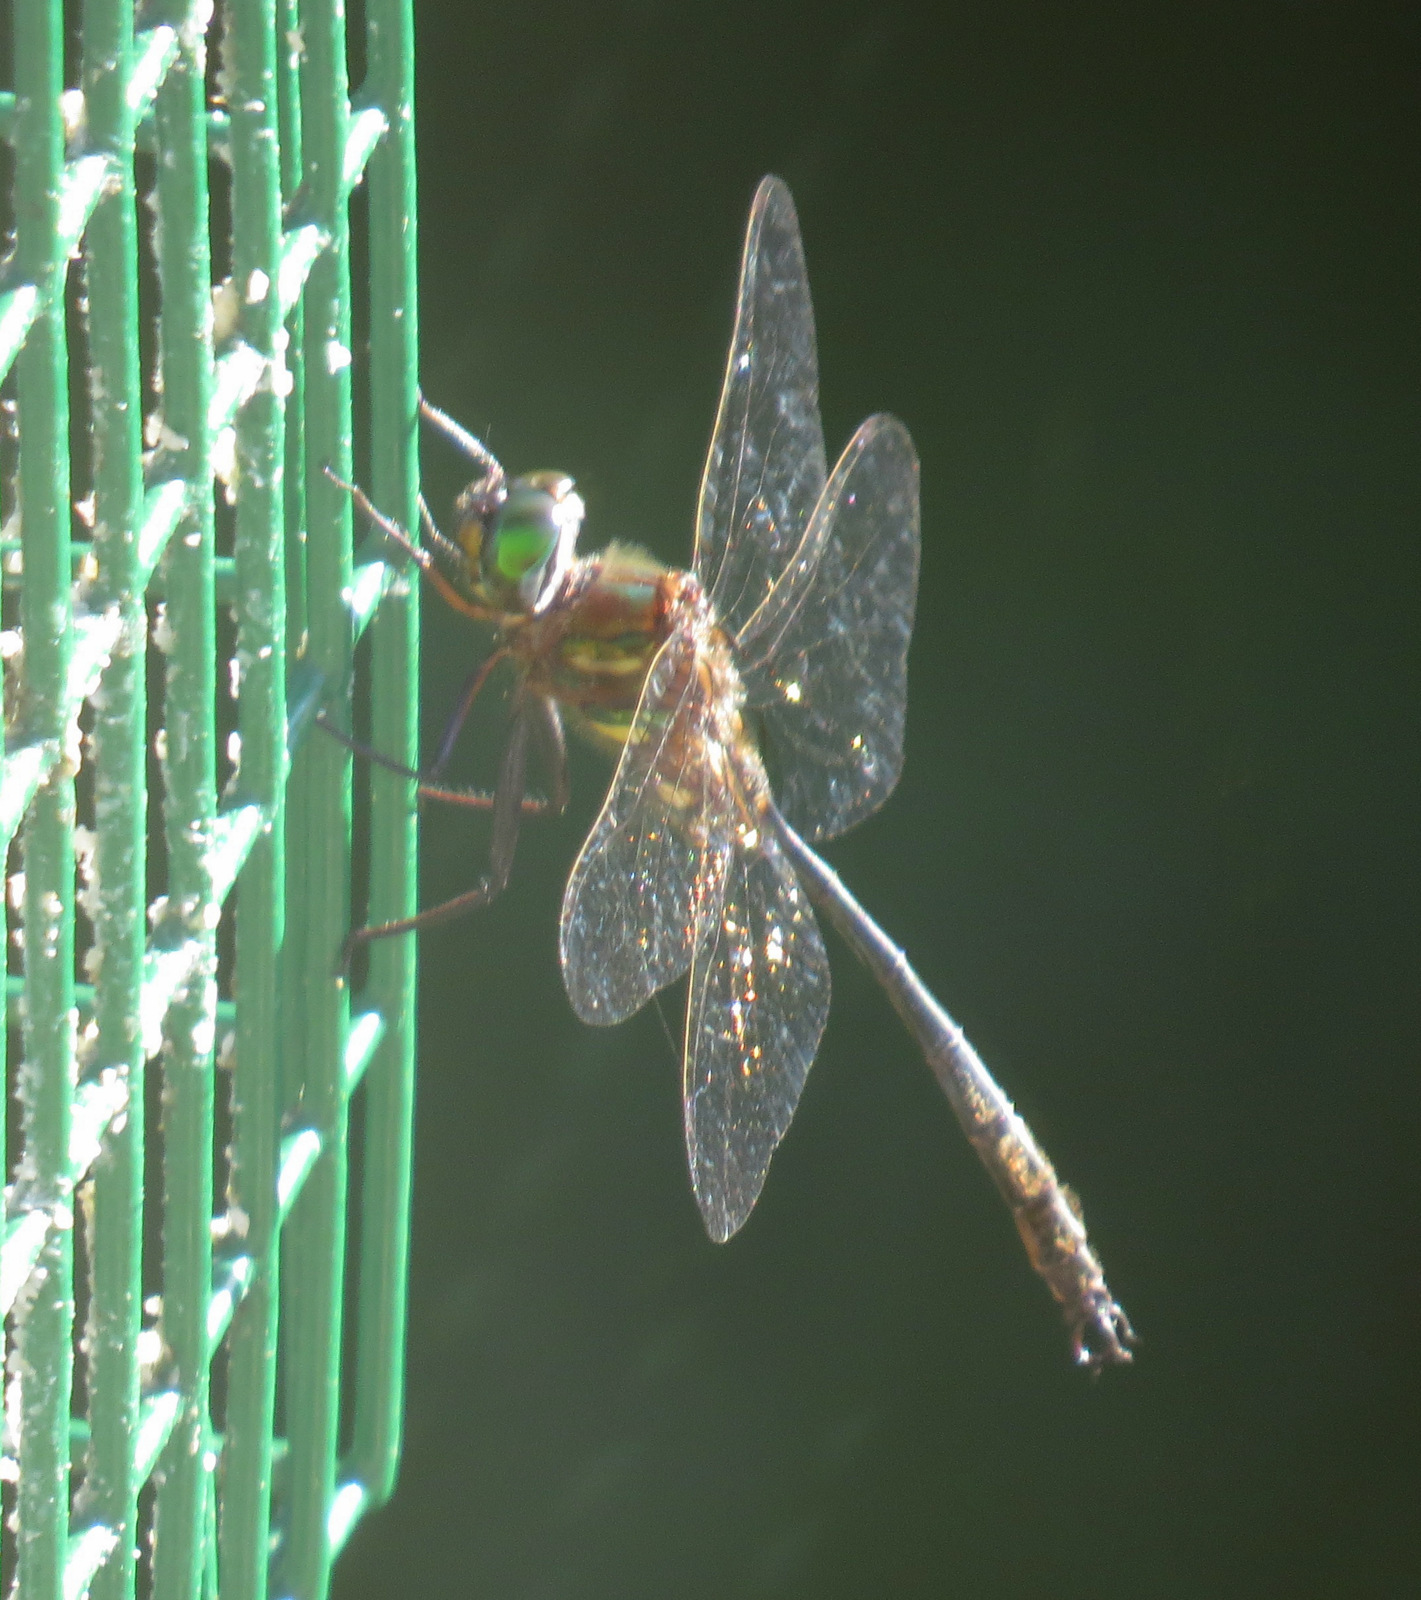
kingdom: Animalia
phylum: Arthropoda
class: Insecta
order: Odonata
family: Corduliidae
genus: Somatochlora
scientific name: Somatochlora tenebrosa
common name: Clamp-tipped emerald
